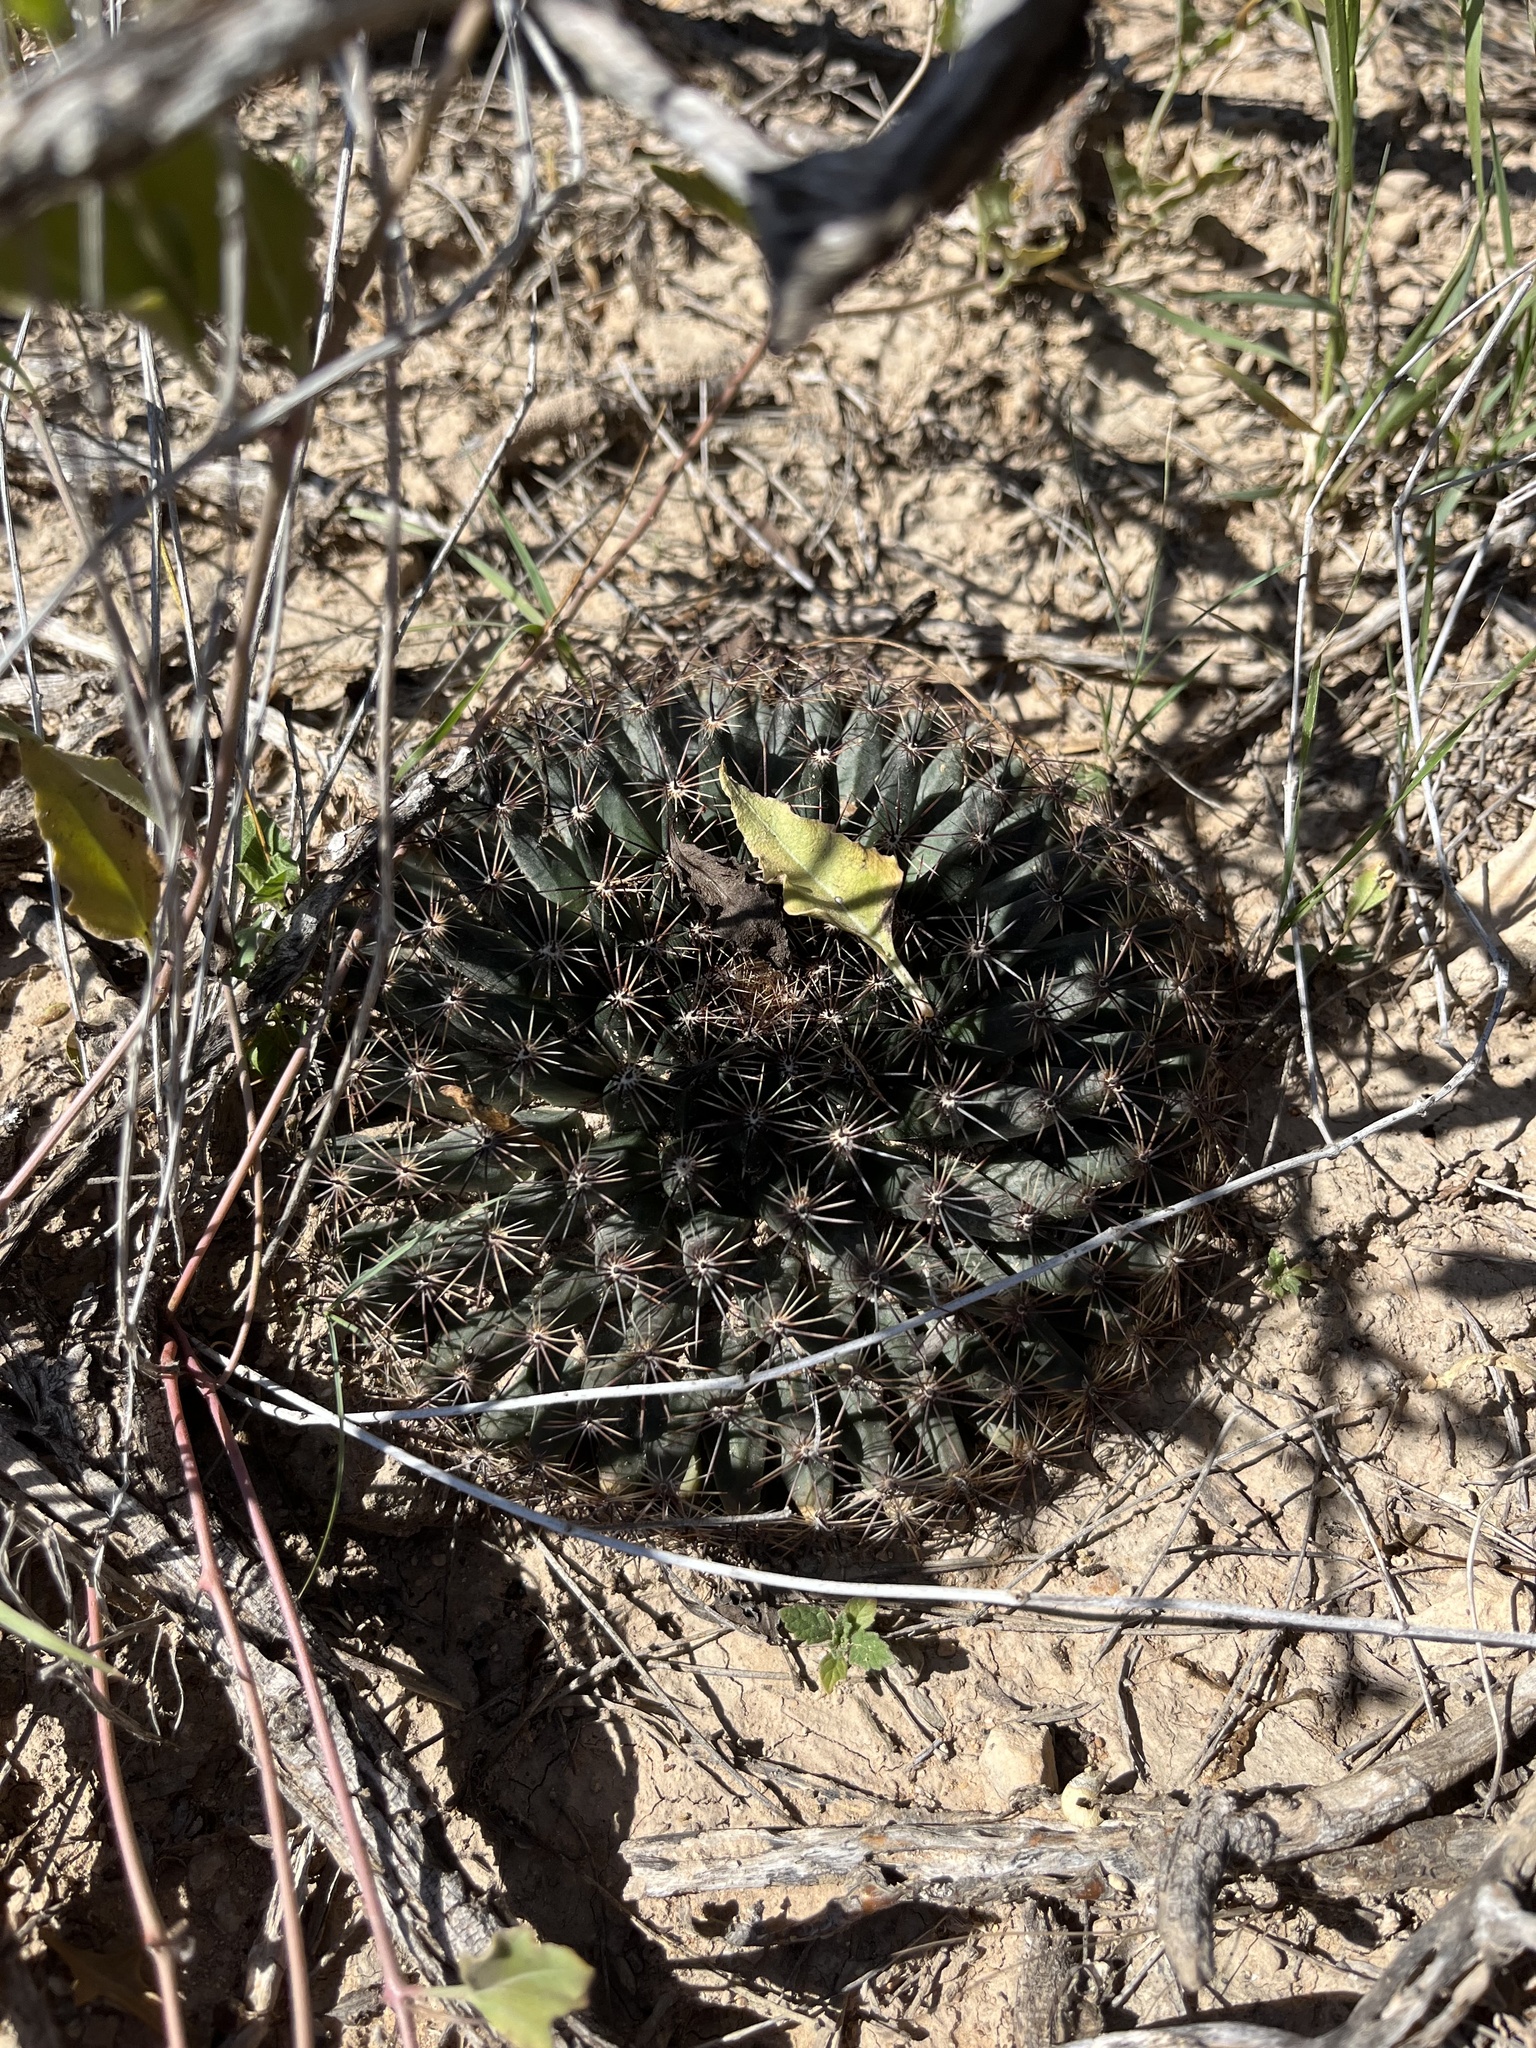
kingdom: Plantae
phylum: Tracheophyta
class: Magnoliopsida
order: Caryophyllales
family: Cactaceae
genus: Mammillaria
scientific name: Mammillaria heyderi
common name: Little nipple cactus
